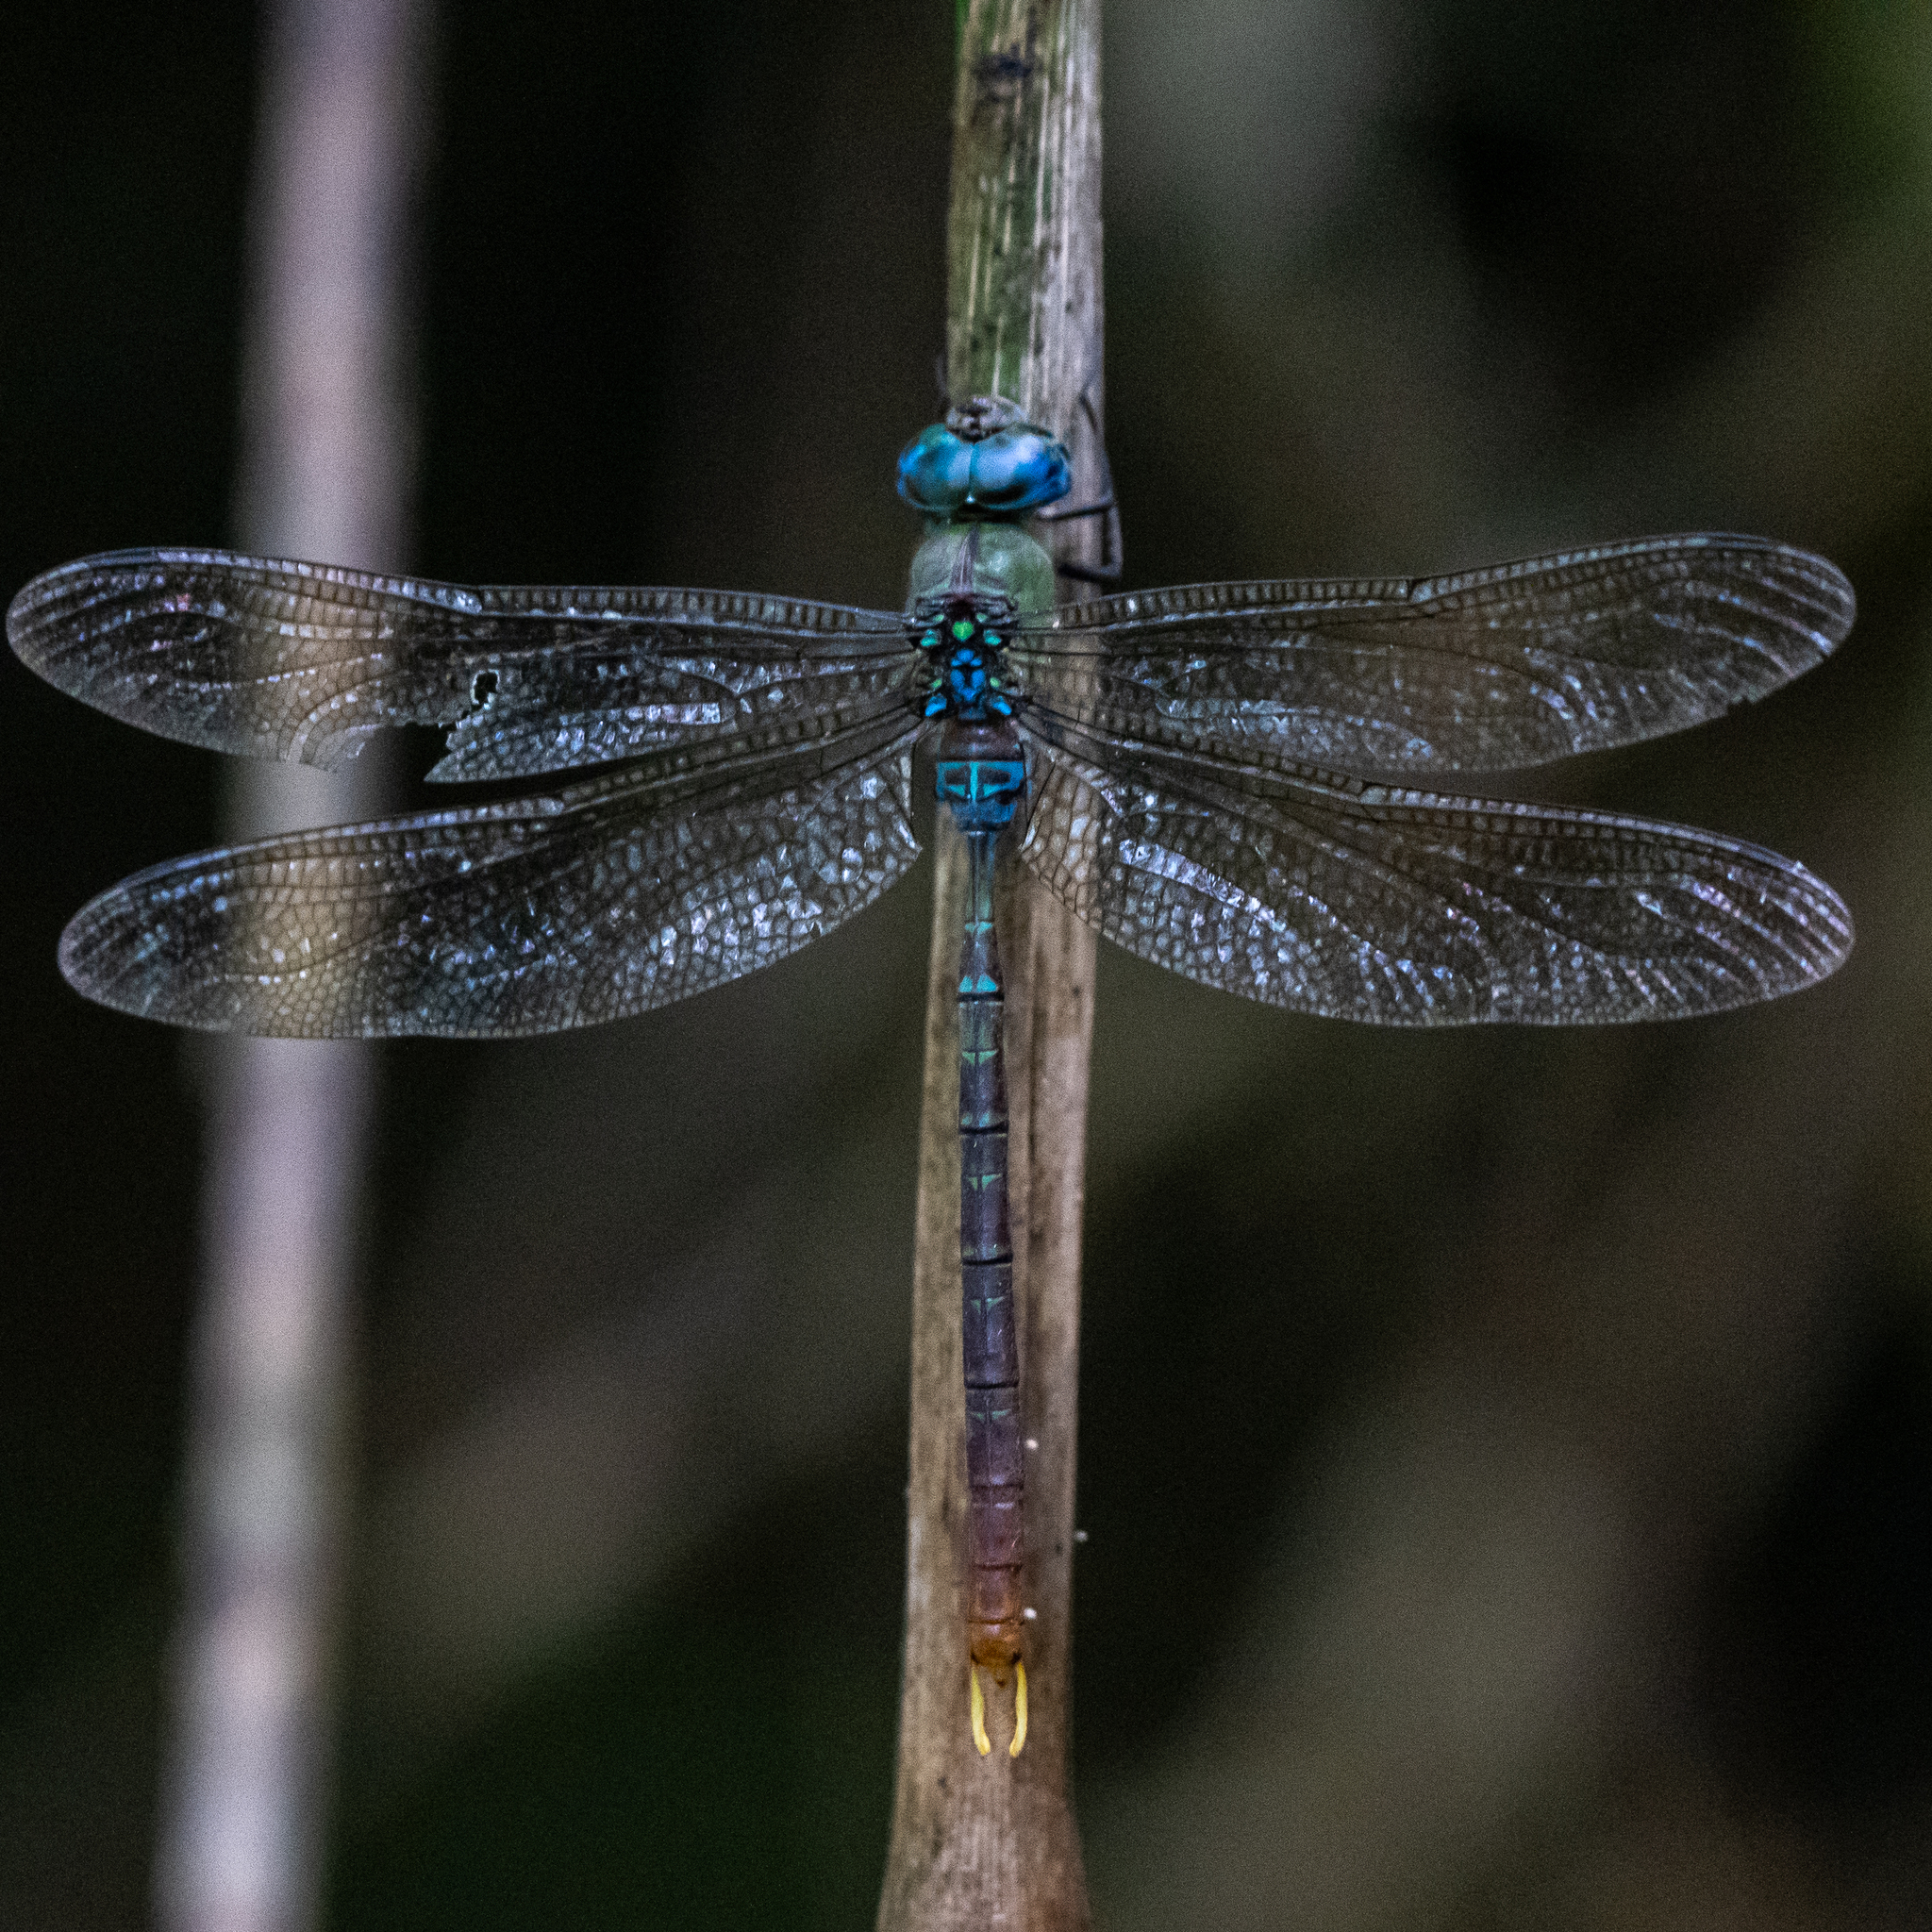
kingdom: Animalia
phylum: Arthropoda
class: Insecta
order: Odonata
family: Aeshnidae
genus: Gynacantha
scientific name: Gynacantha tibiata
